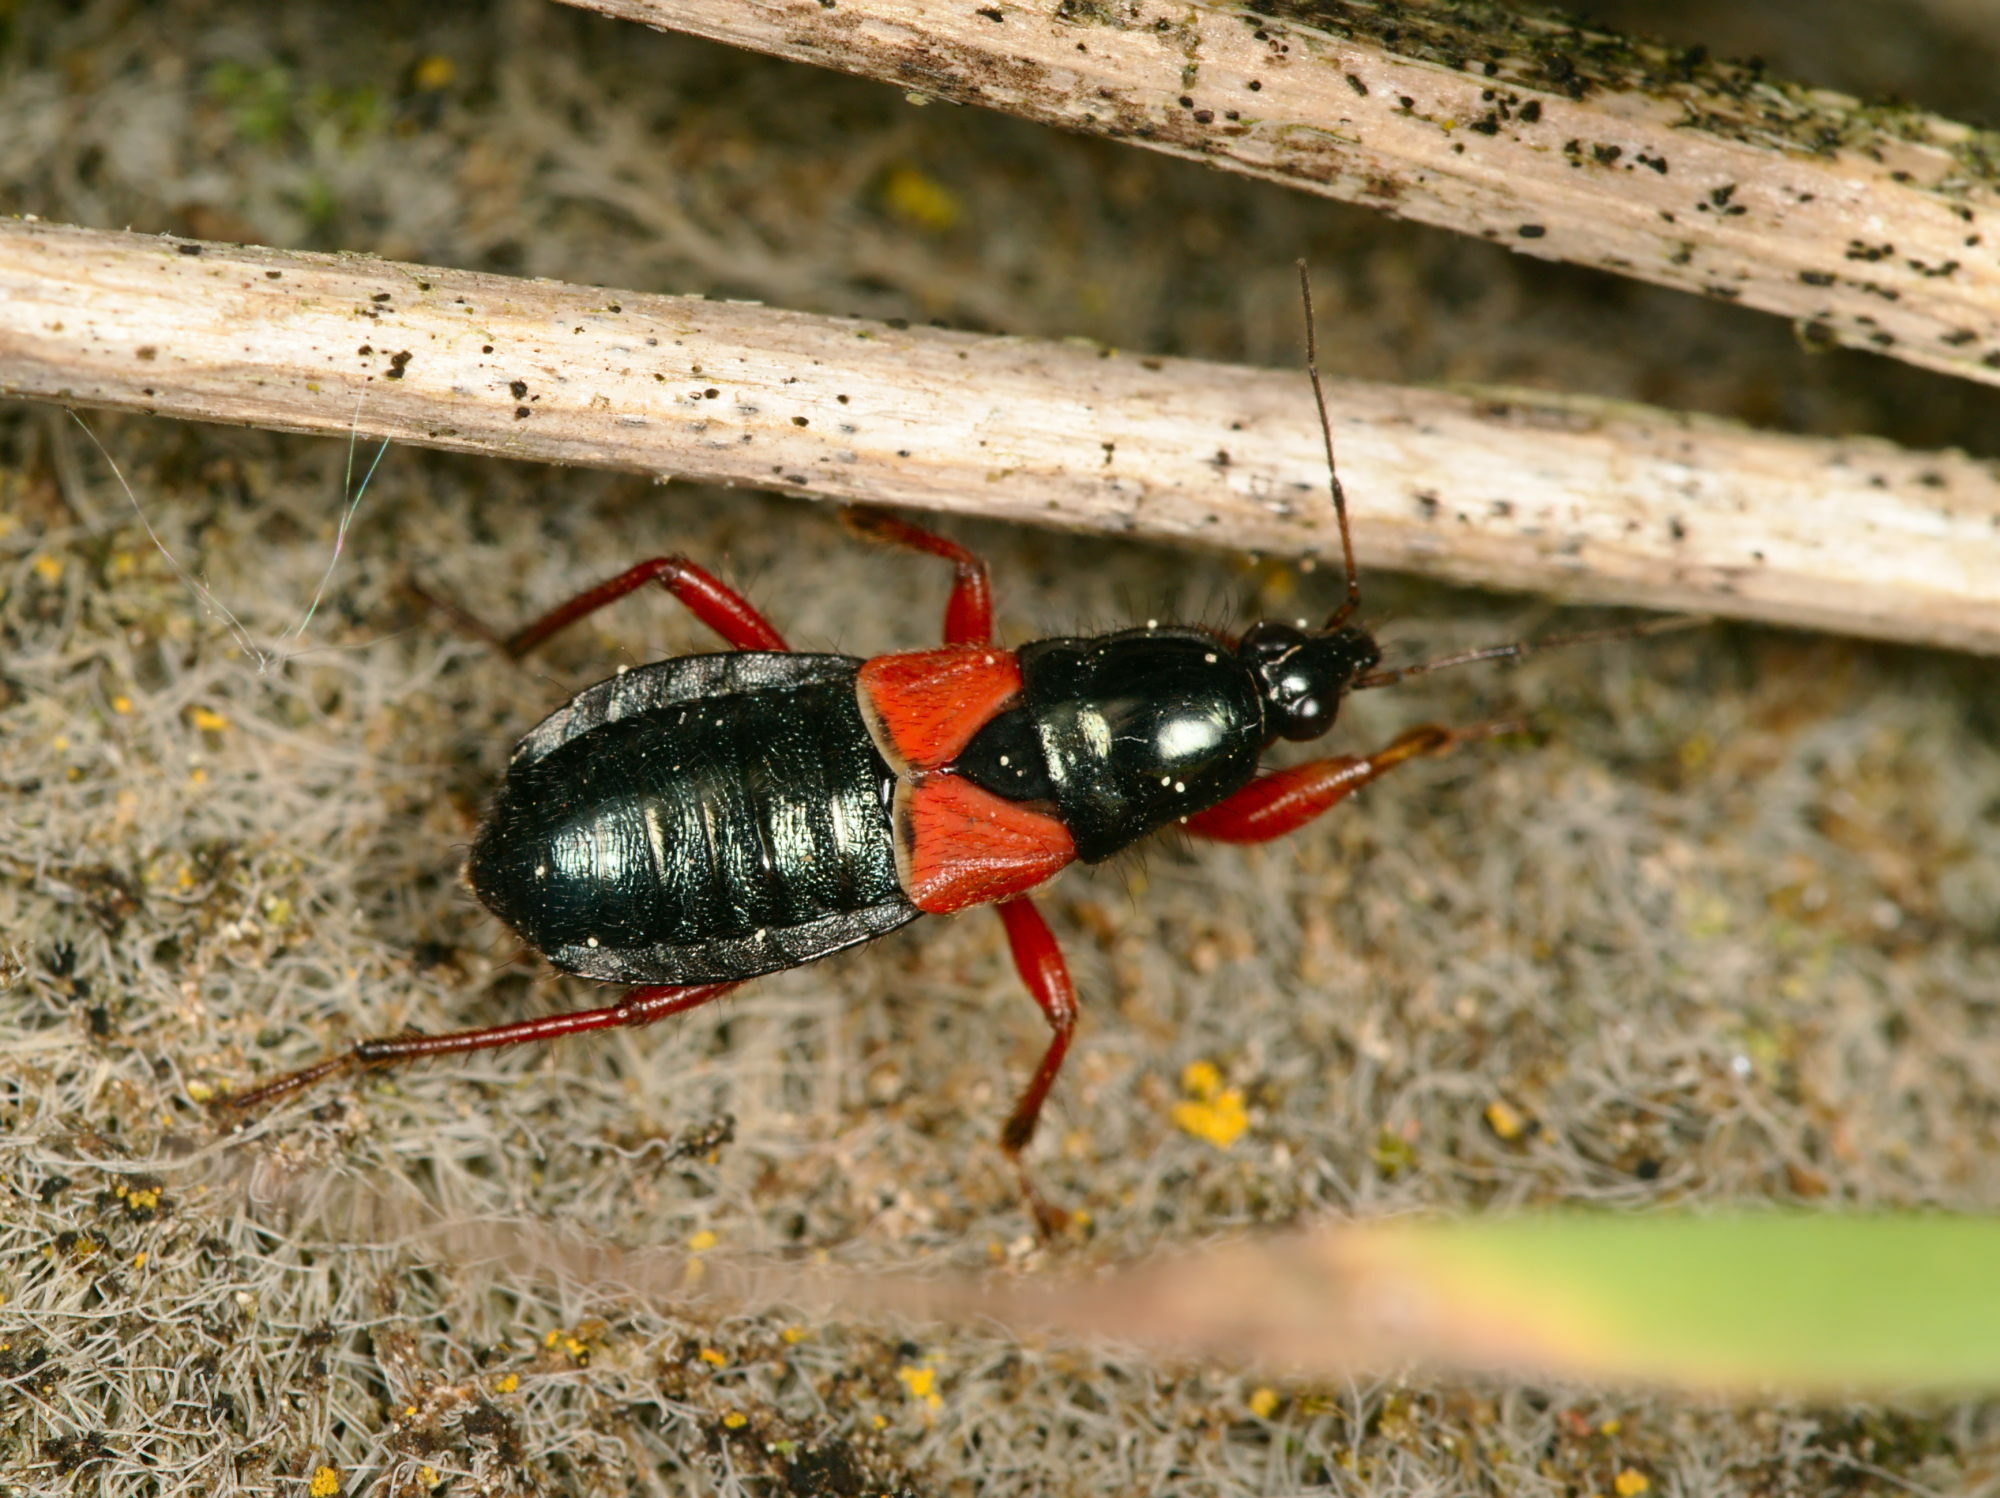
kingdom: Animalia
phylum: Arthropoda
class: Insecta
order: Hemiptera
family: Nabidae
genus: Prostemma
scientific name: Prostemma guttula
